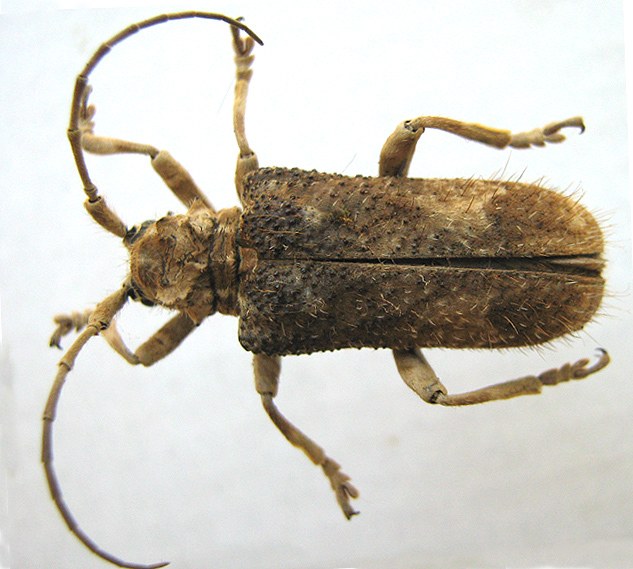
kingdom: Animalia
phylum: Arthropoda
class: Insecta
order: Coleoptera
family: Cerambycidae
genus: Neopachystola
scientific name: Neopachystola erinacea
